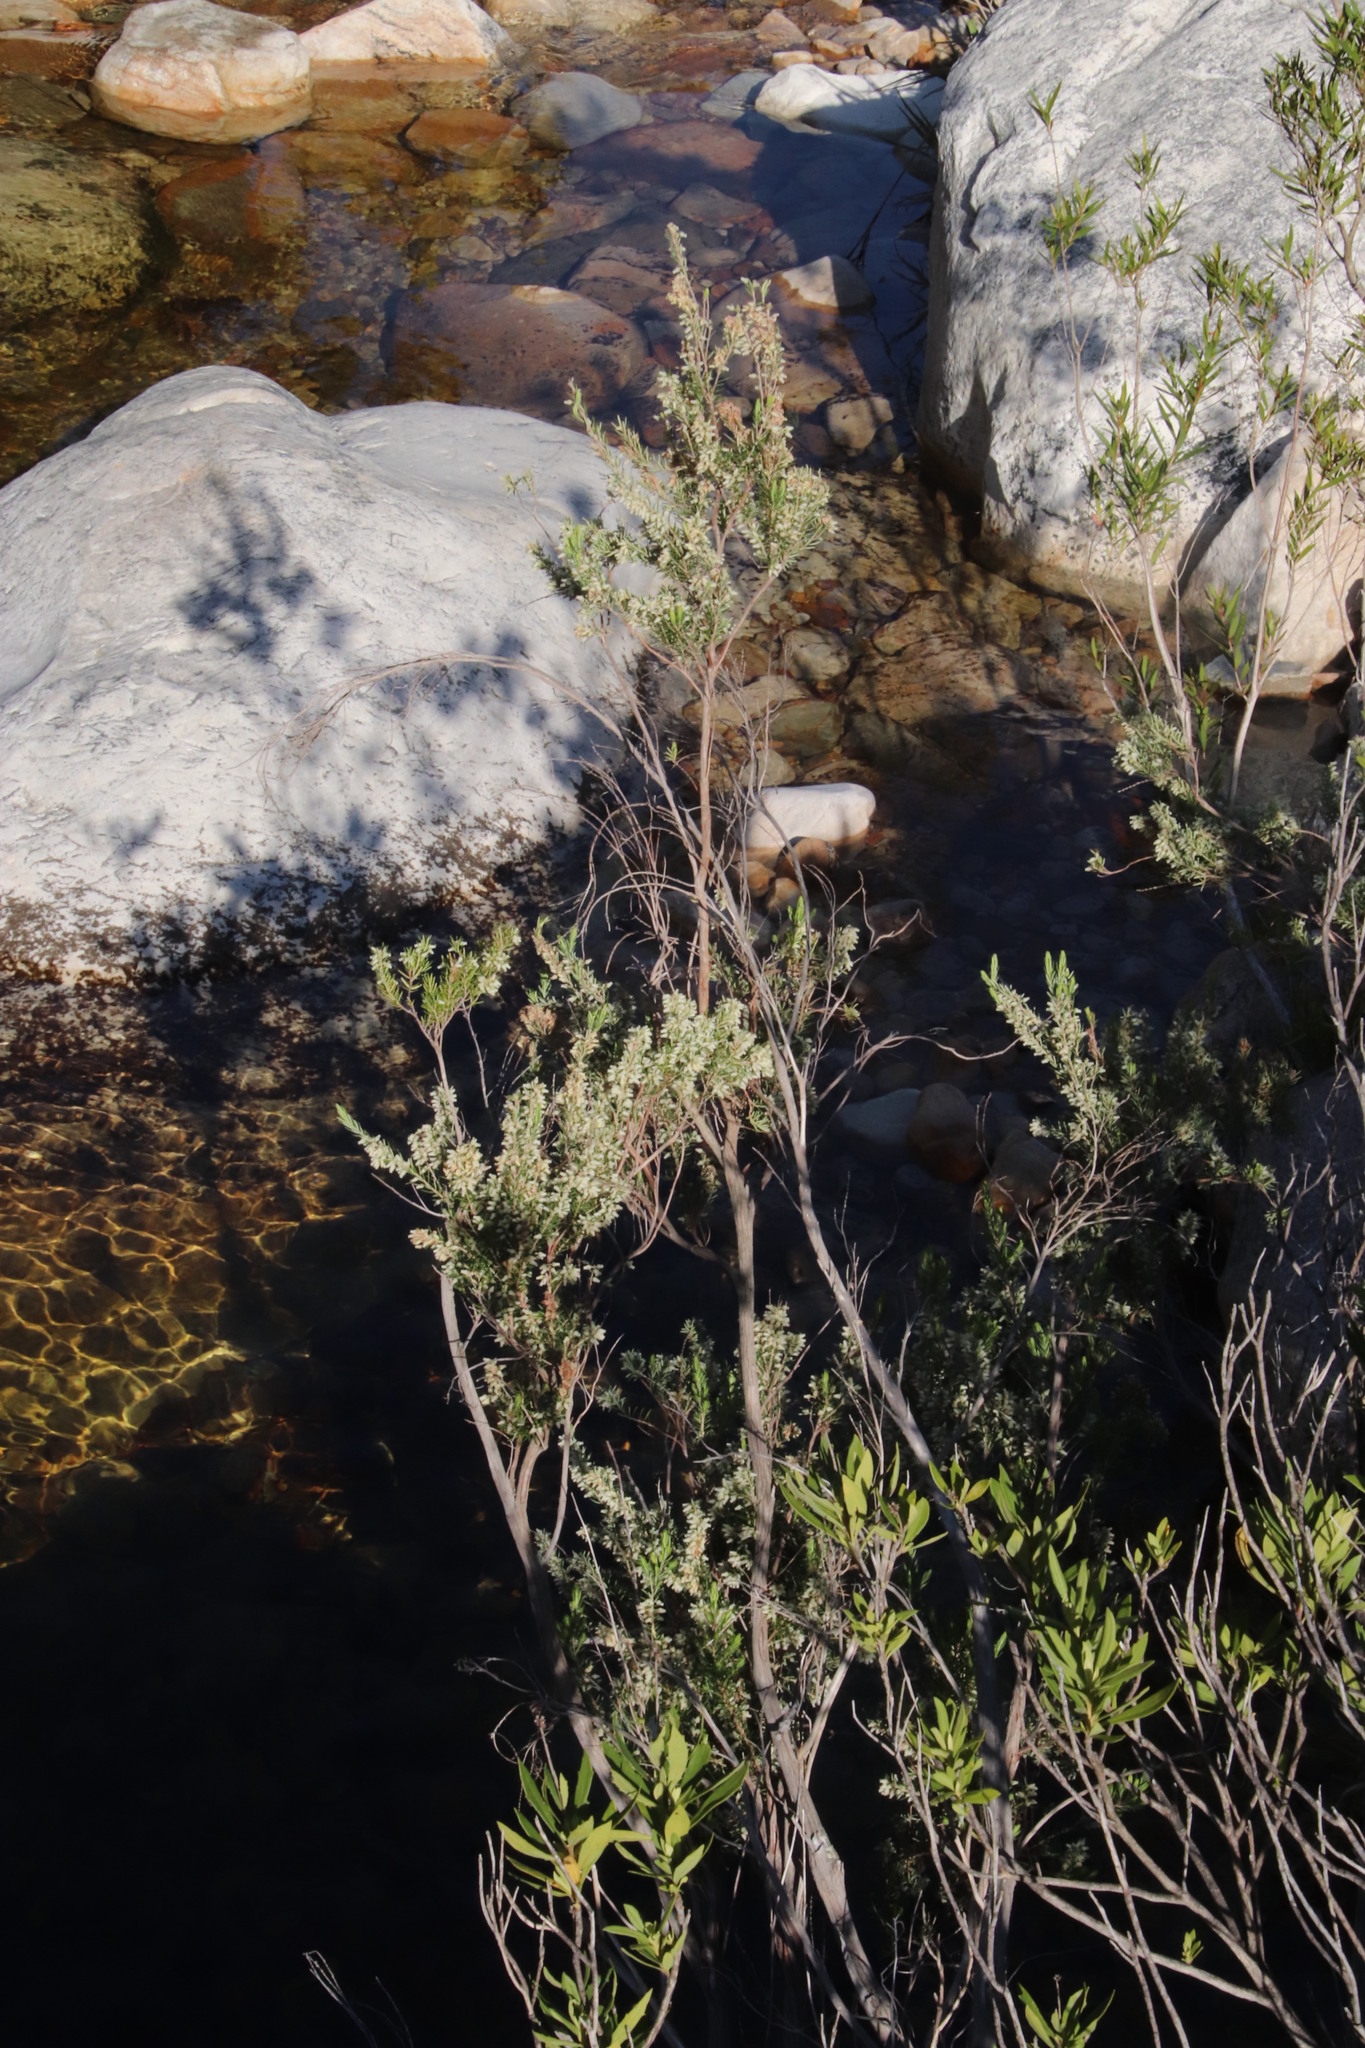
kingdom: Plantae
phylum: Tracheophyta
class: Magnoliopsida
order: Ericales
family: Ericaceae
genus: Erica
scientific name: Erica caffra
